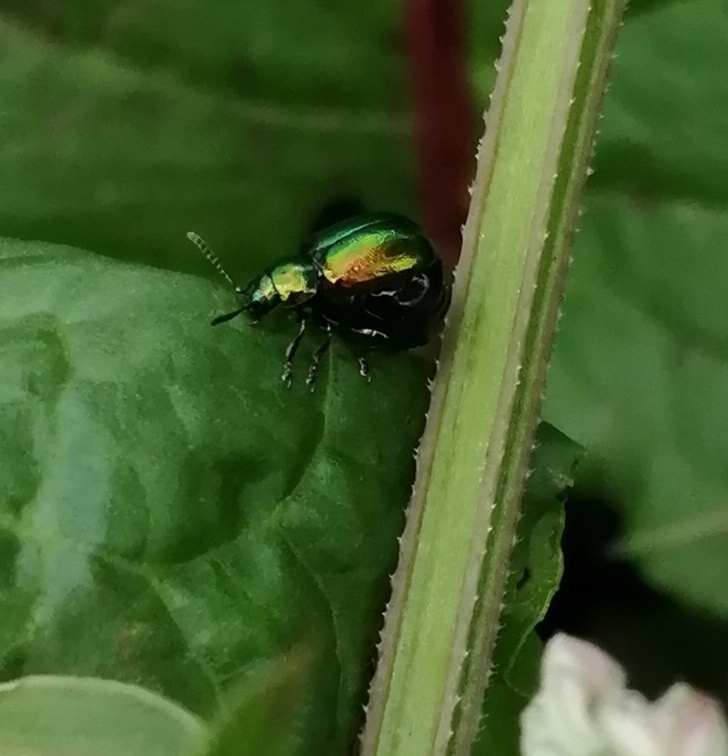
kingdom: Animalia
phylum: Arthropoda
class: Insecta
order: Coleoptera
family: Chrysomelidae
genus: Gastrophysa
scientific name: Gastrophysa viridula
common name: Green dock beetle
